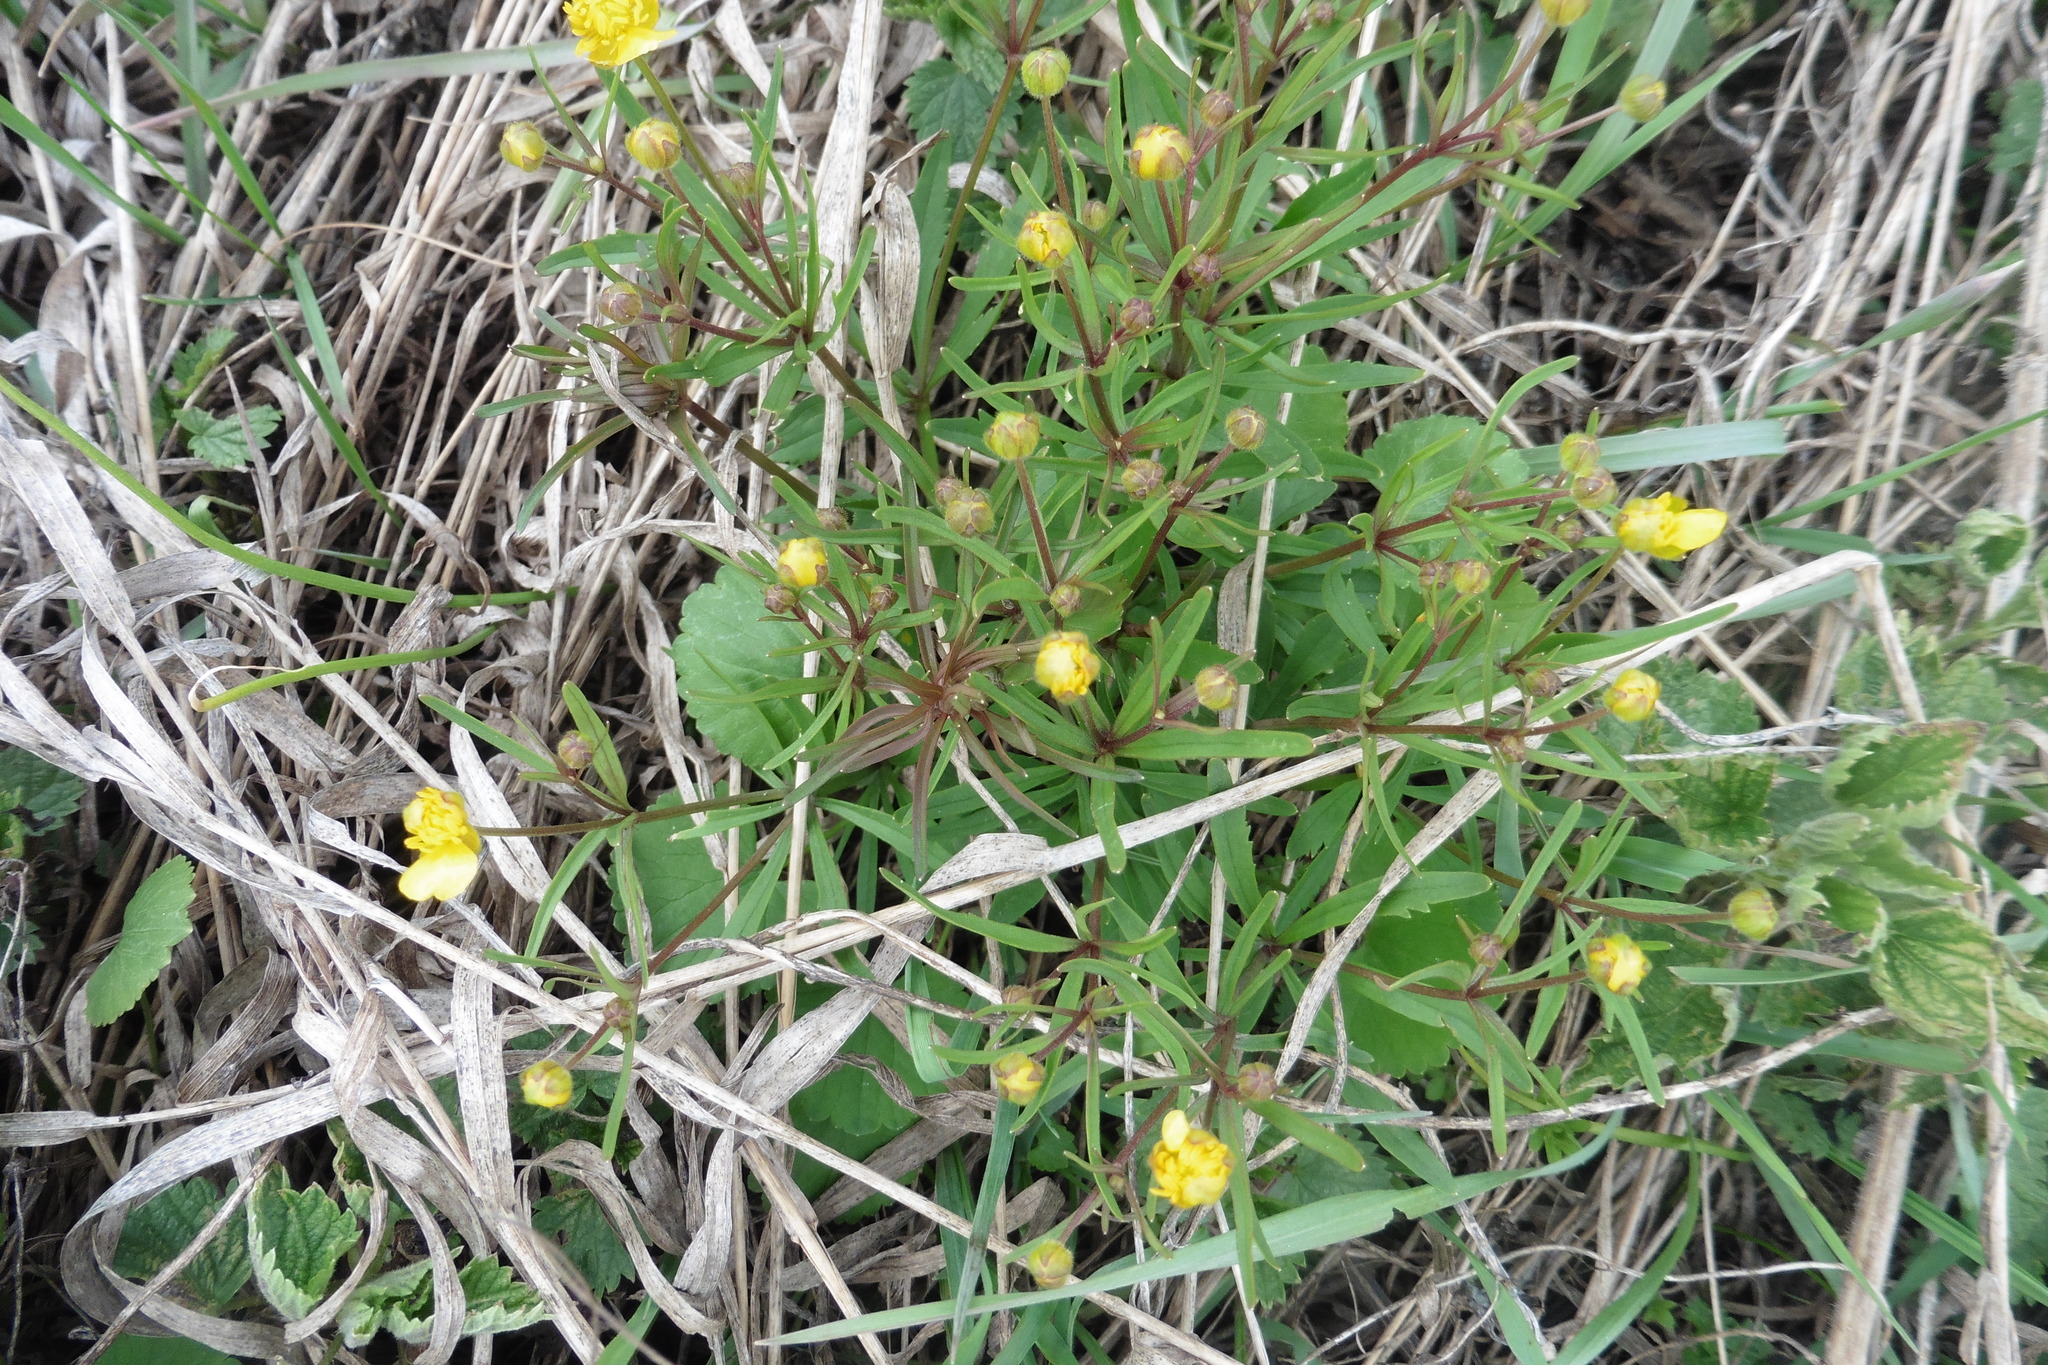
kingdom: Plantae
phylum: Tracheophyta
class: Magnoliopsida
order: Ranunculales
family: Ranunculaceae
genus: Ranunculus
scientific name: Ranunculus auricomus
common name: Goldilocks buttercup
